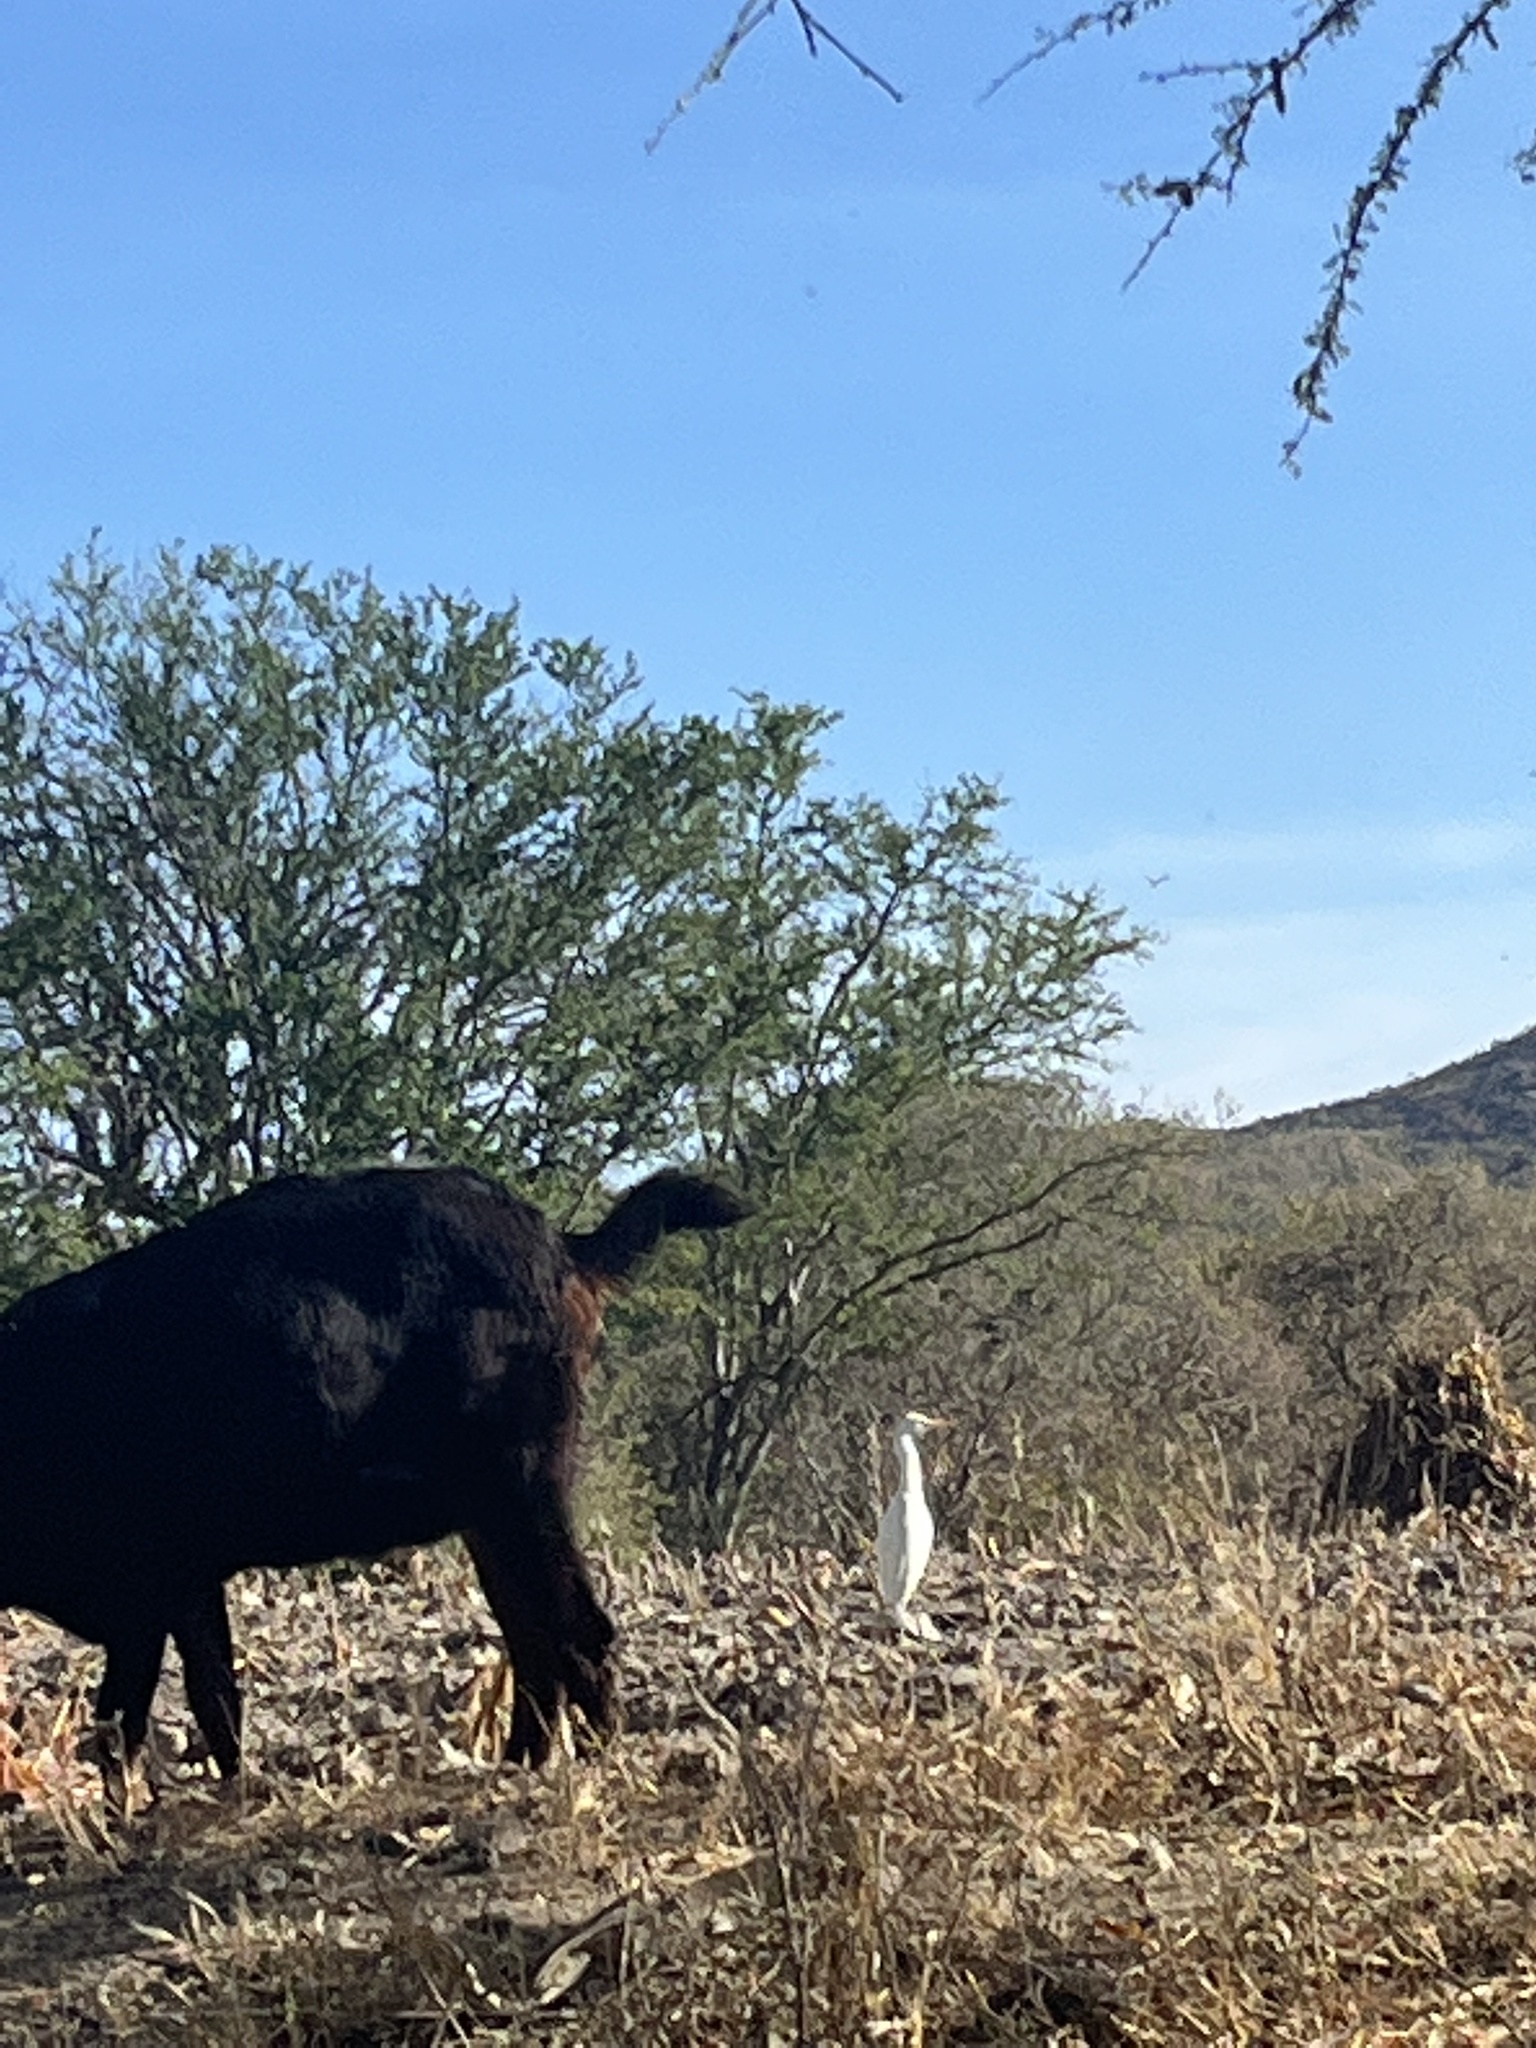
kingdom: Animalia
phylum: Chordata
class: Aves
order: Pelecaniformes
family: Ardeidae
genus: Bubulcus
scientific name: Bubulcus ibis
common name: Cattle egret
